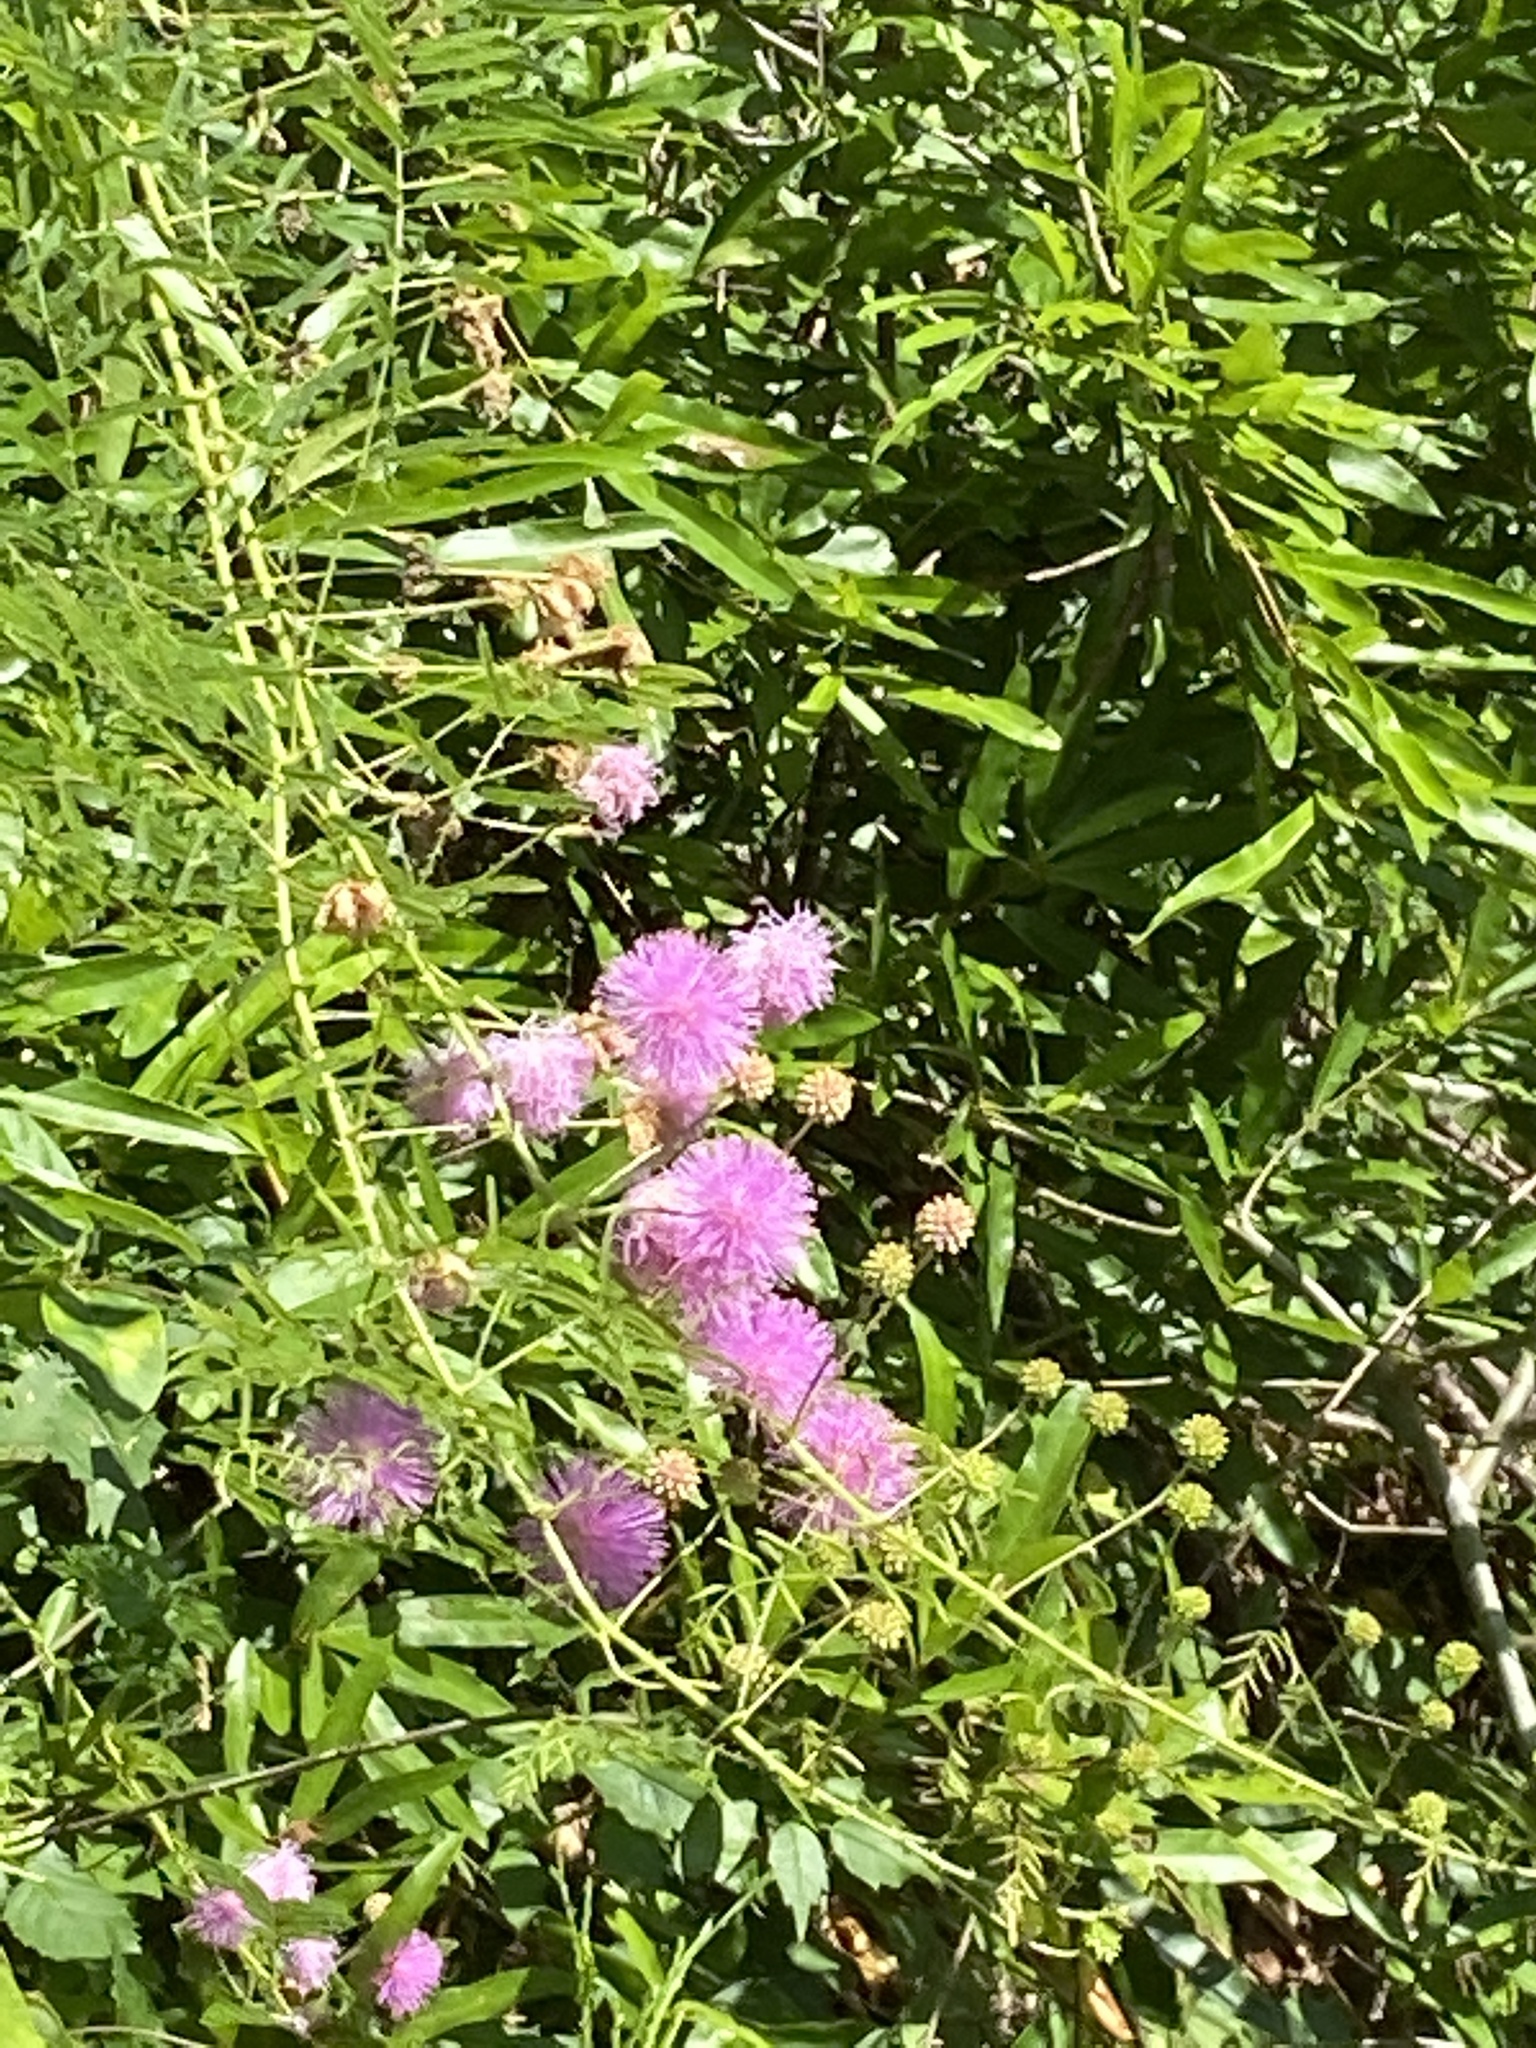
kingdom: Plantae
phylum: Tracheophyta
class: Magnoliopsida
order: Fabales
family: Fabaceae
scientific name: Fabaceae
